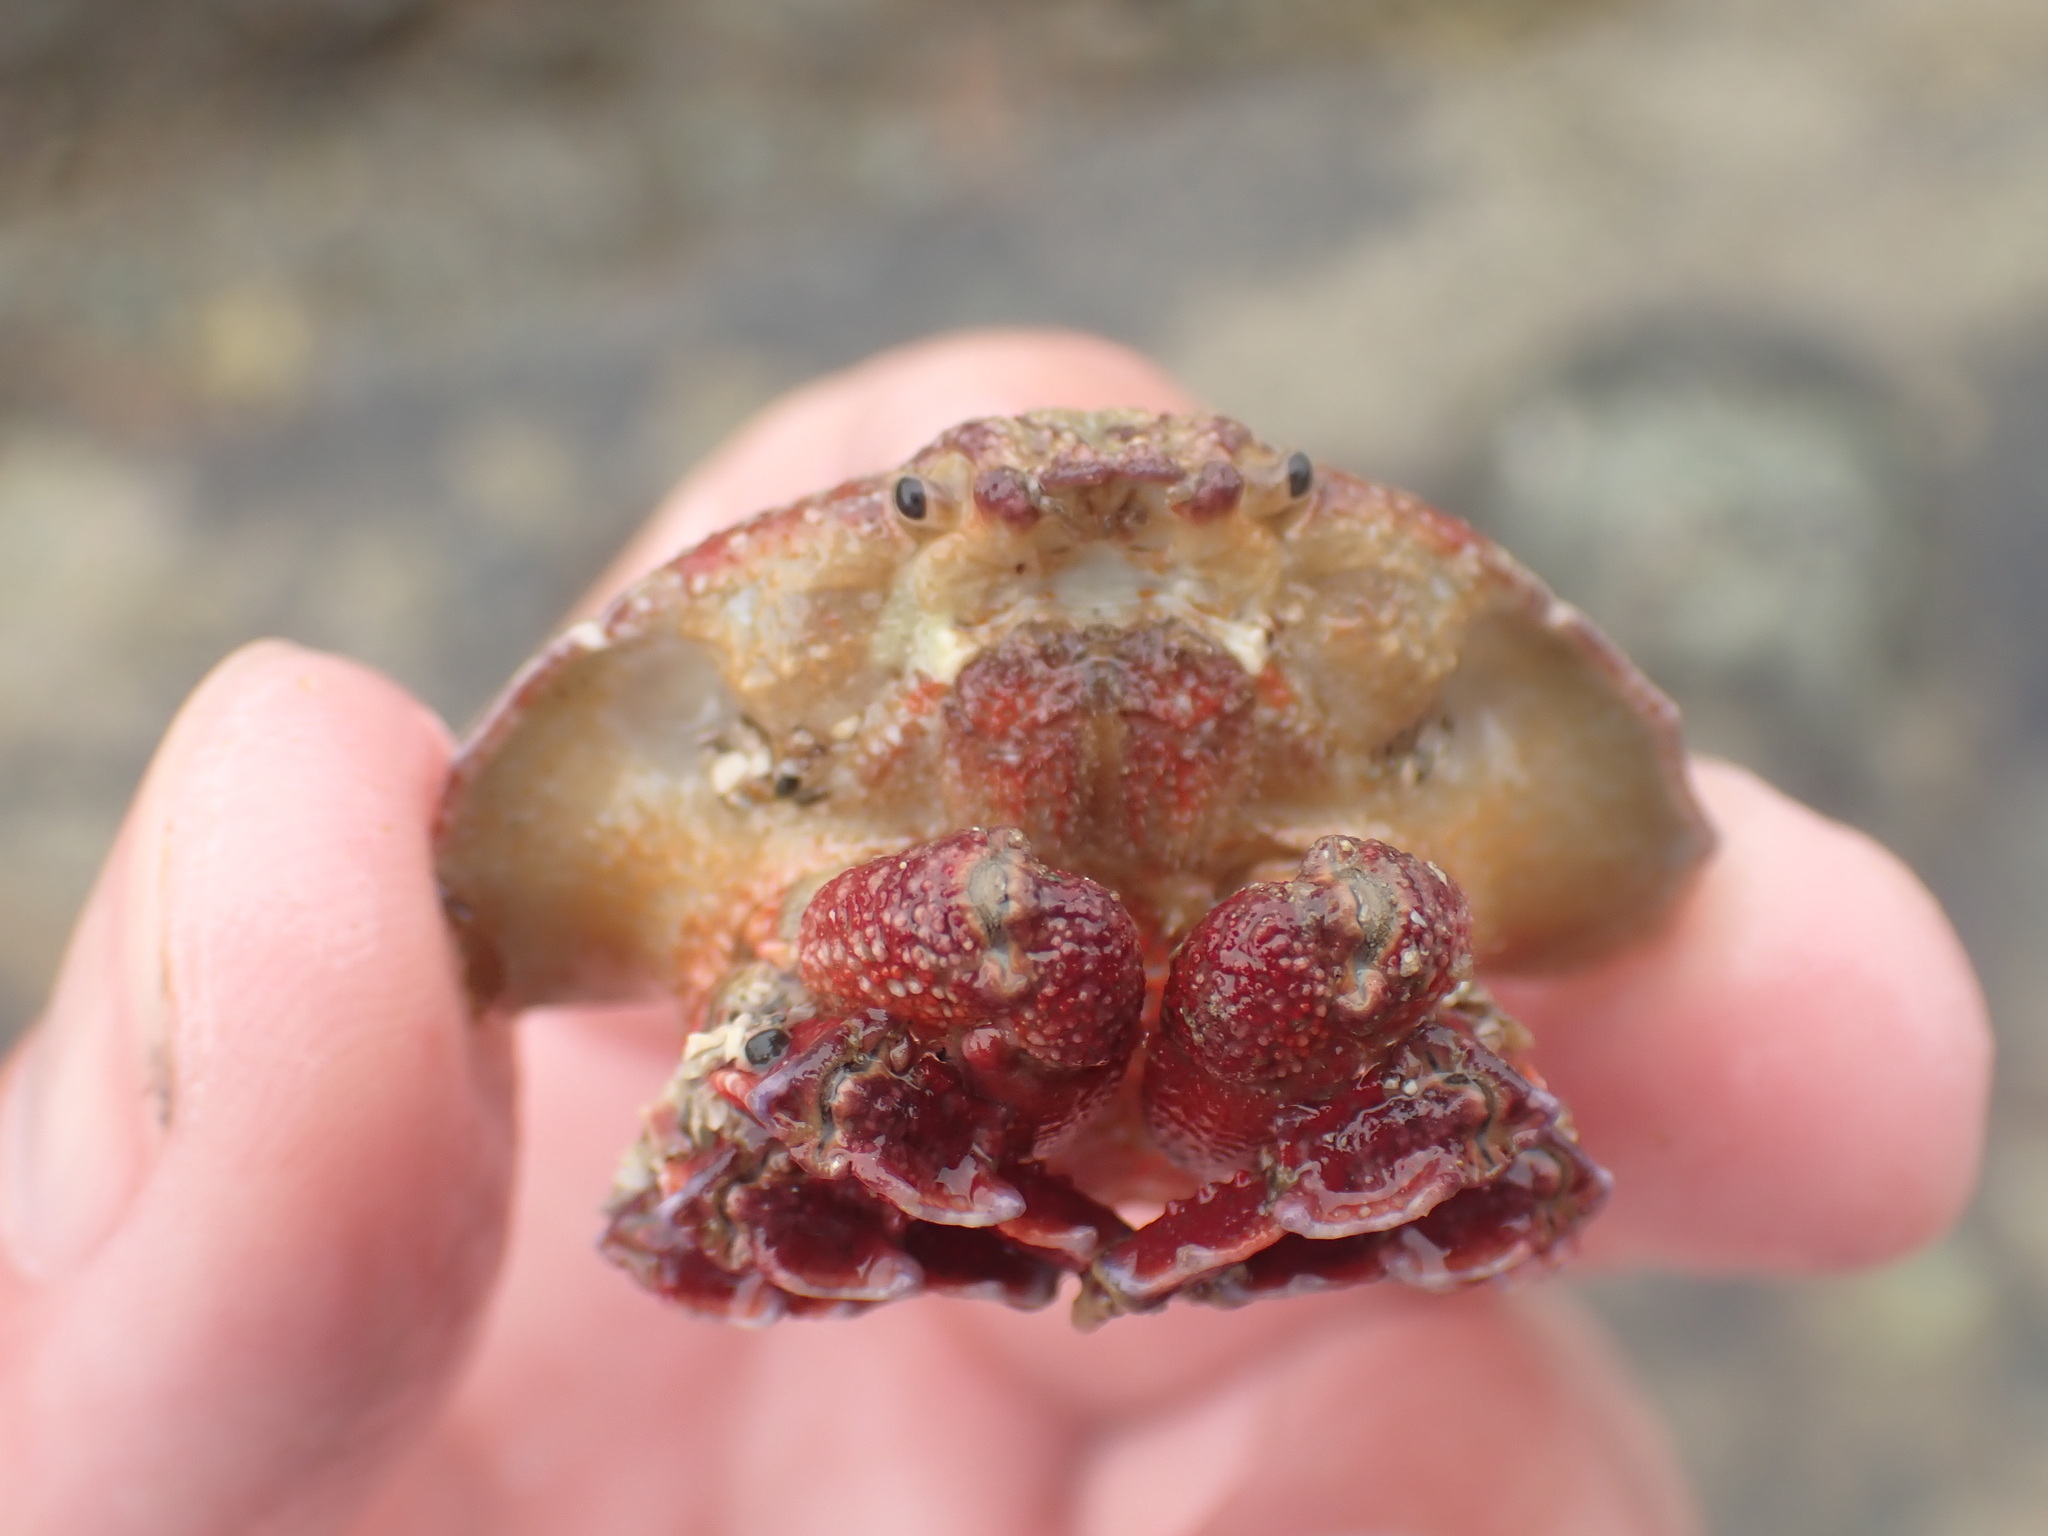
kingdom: Animalia
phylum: Arthropoda
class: Malacostraca
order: Decapoda
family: Majidae
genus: Eurynolambrus
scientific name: Eurynolambrus australis
